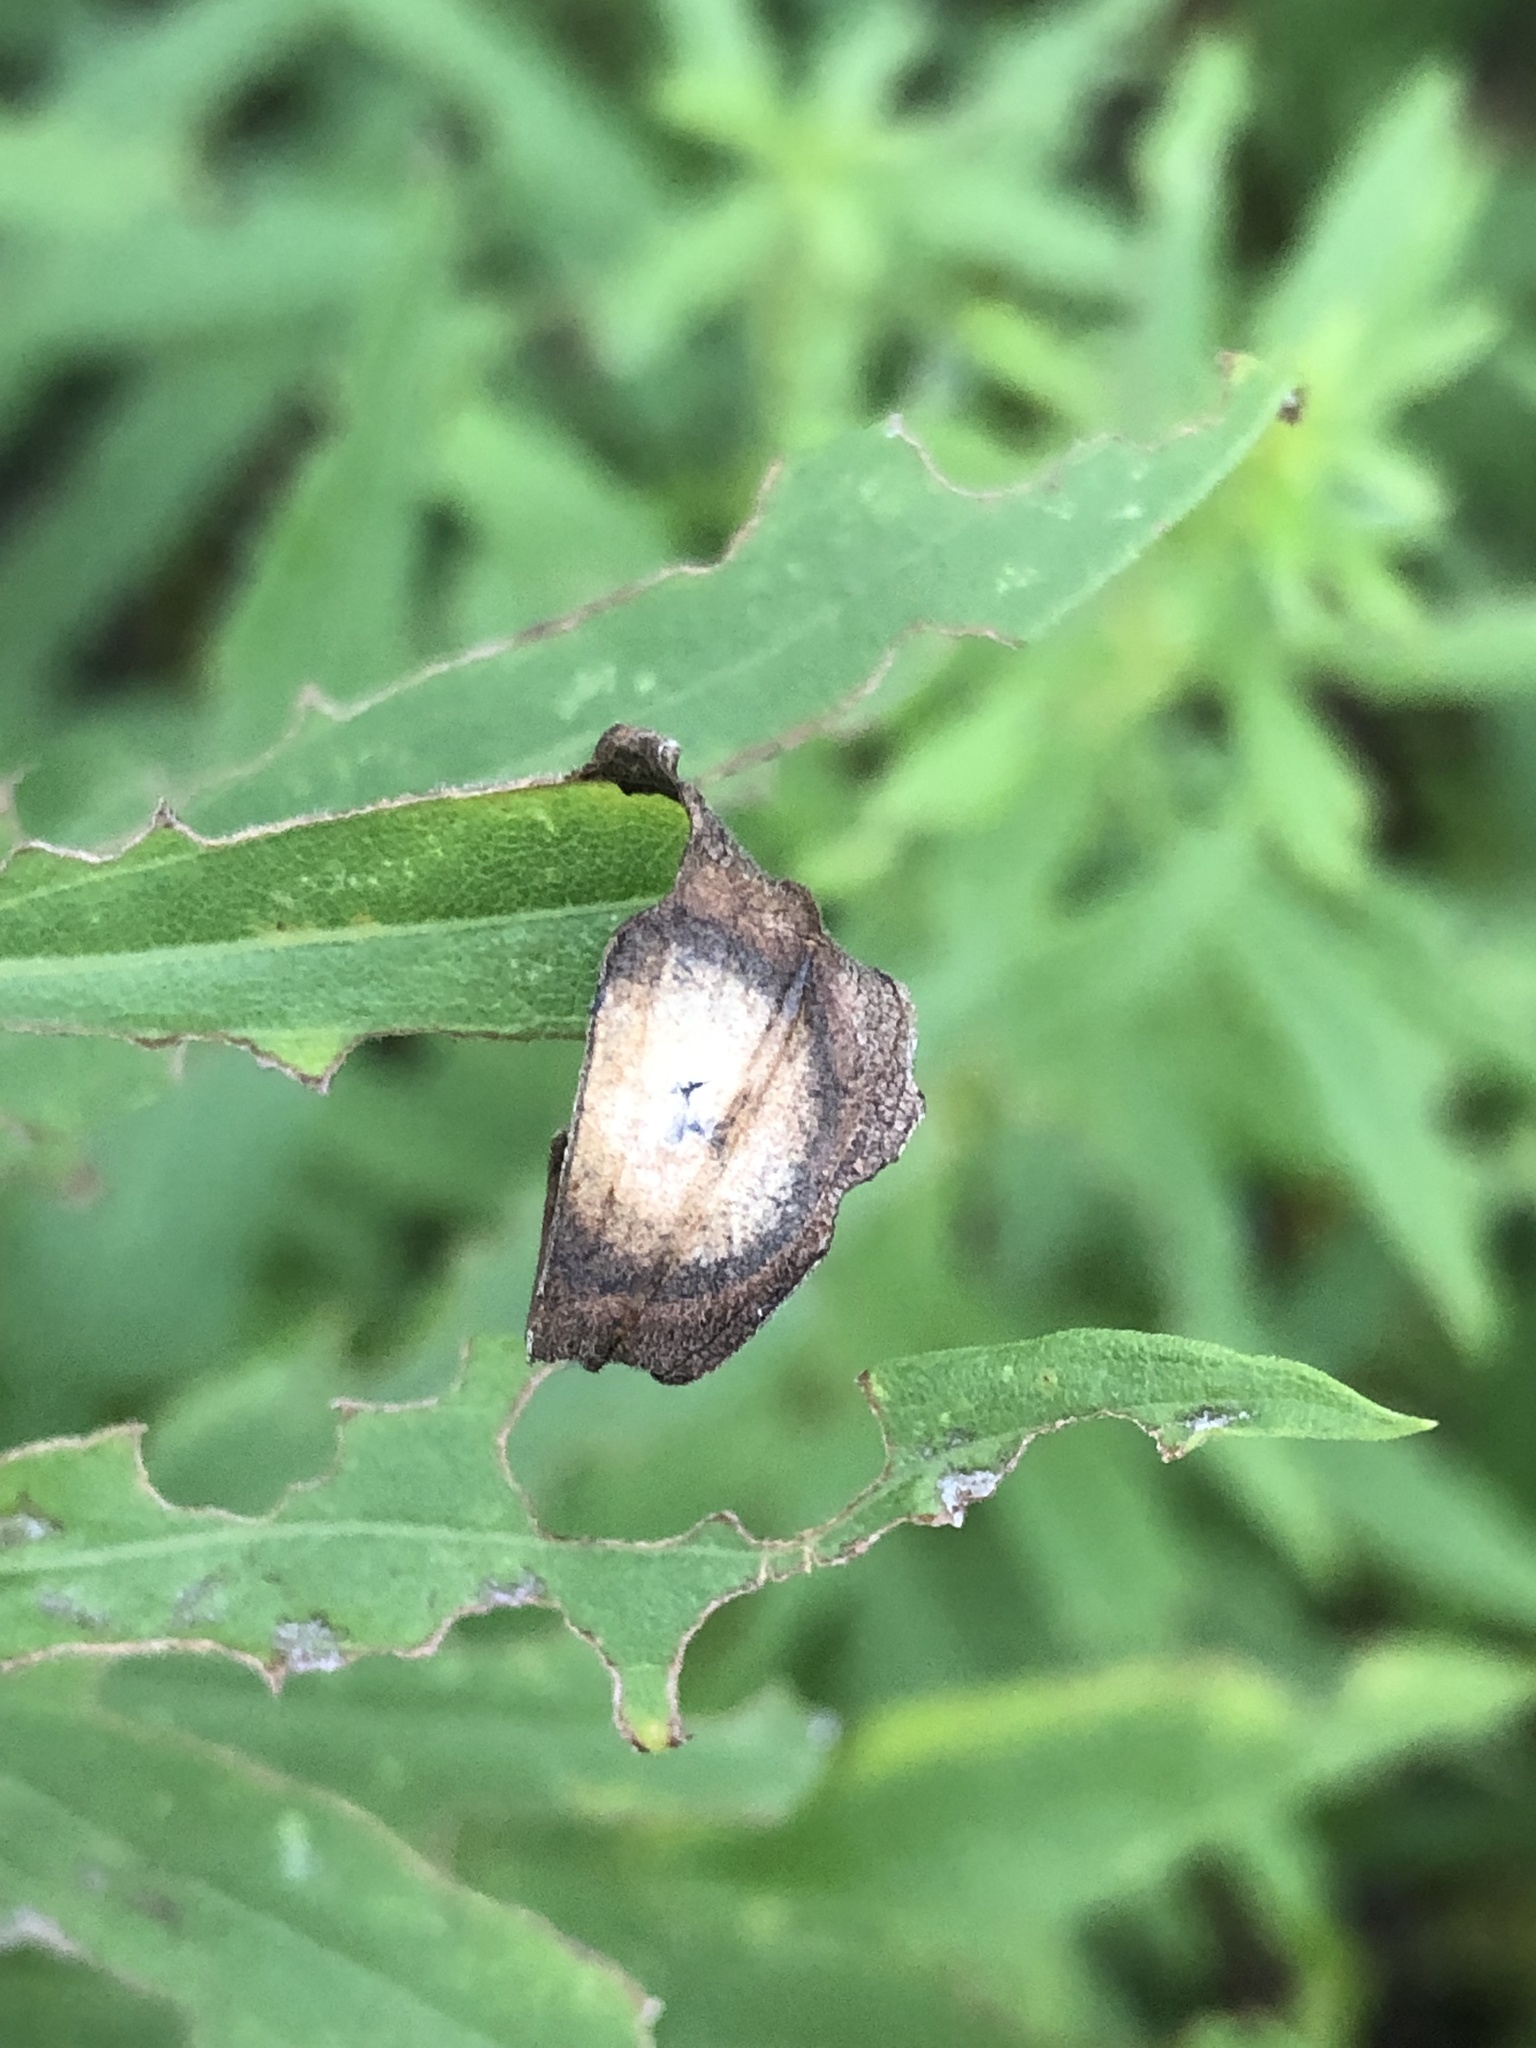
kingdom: Animalia
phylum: Arthropoda
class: Insecta
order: Diptera
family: Cecidomyiidae
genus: Asteromyia
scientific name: Asteromyia carbonifera
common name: Carbonifera goldenrod gall midge
